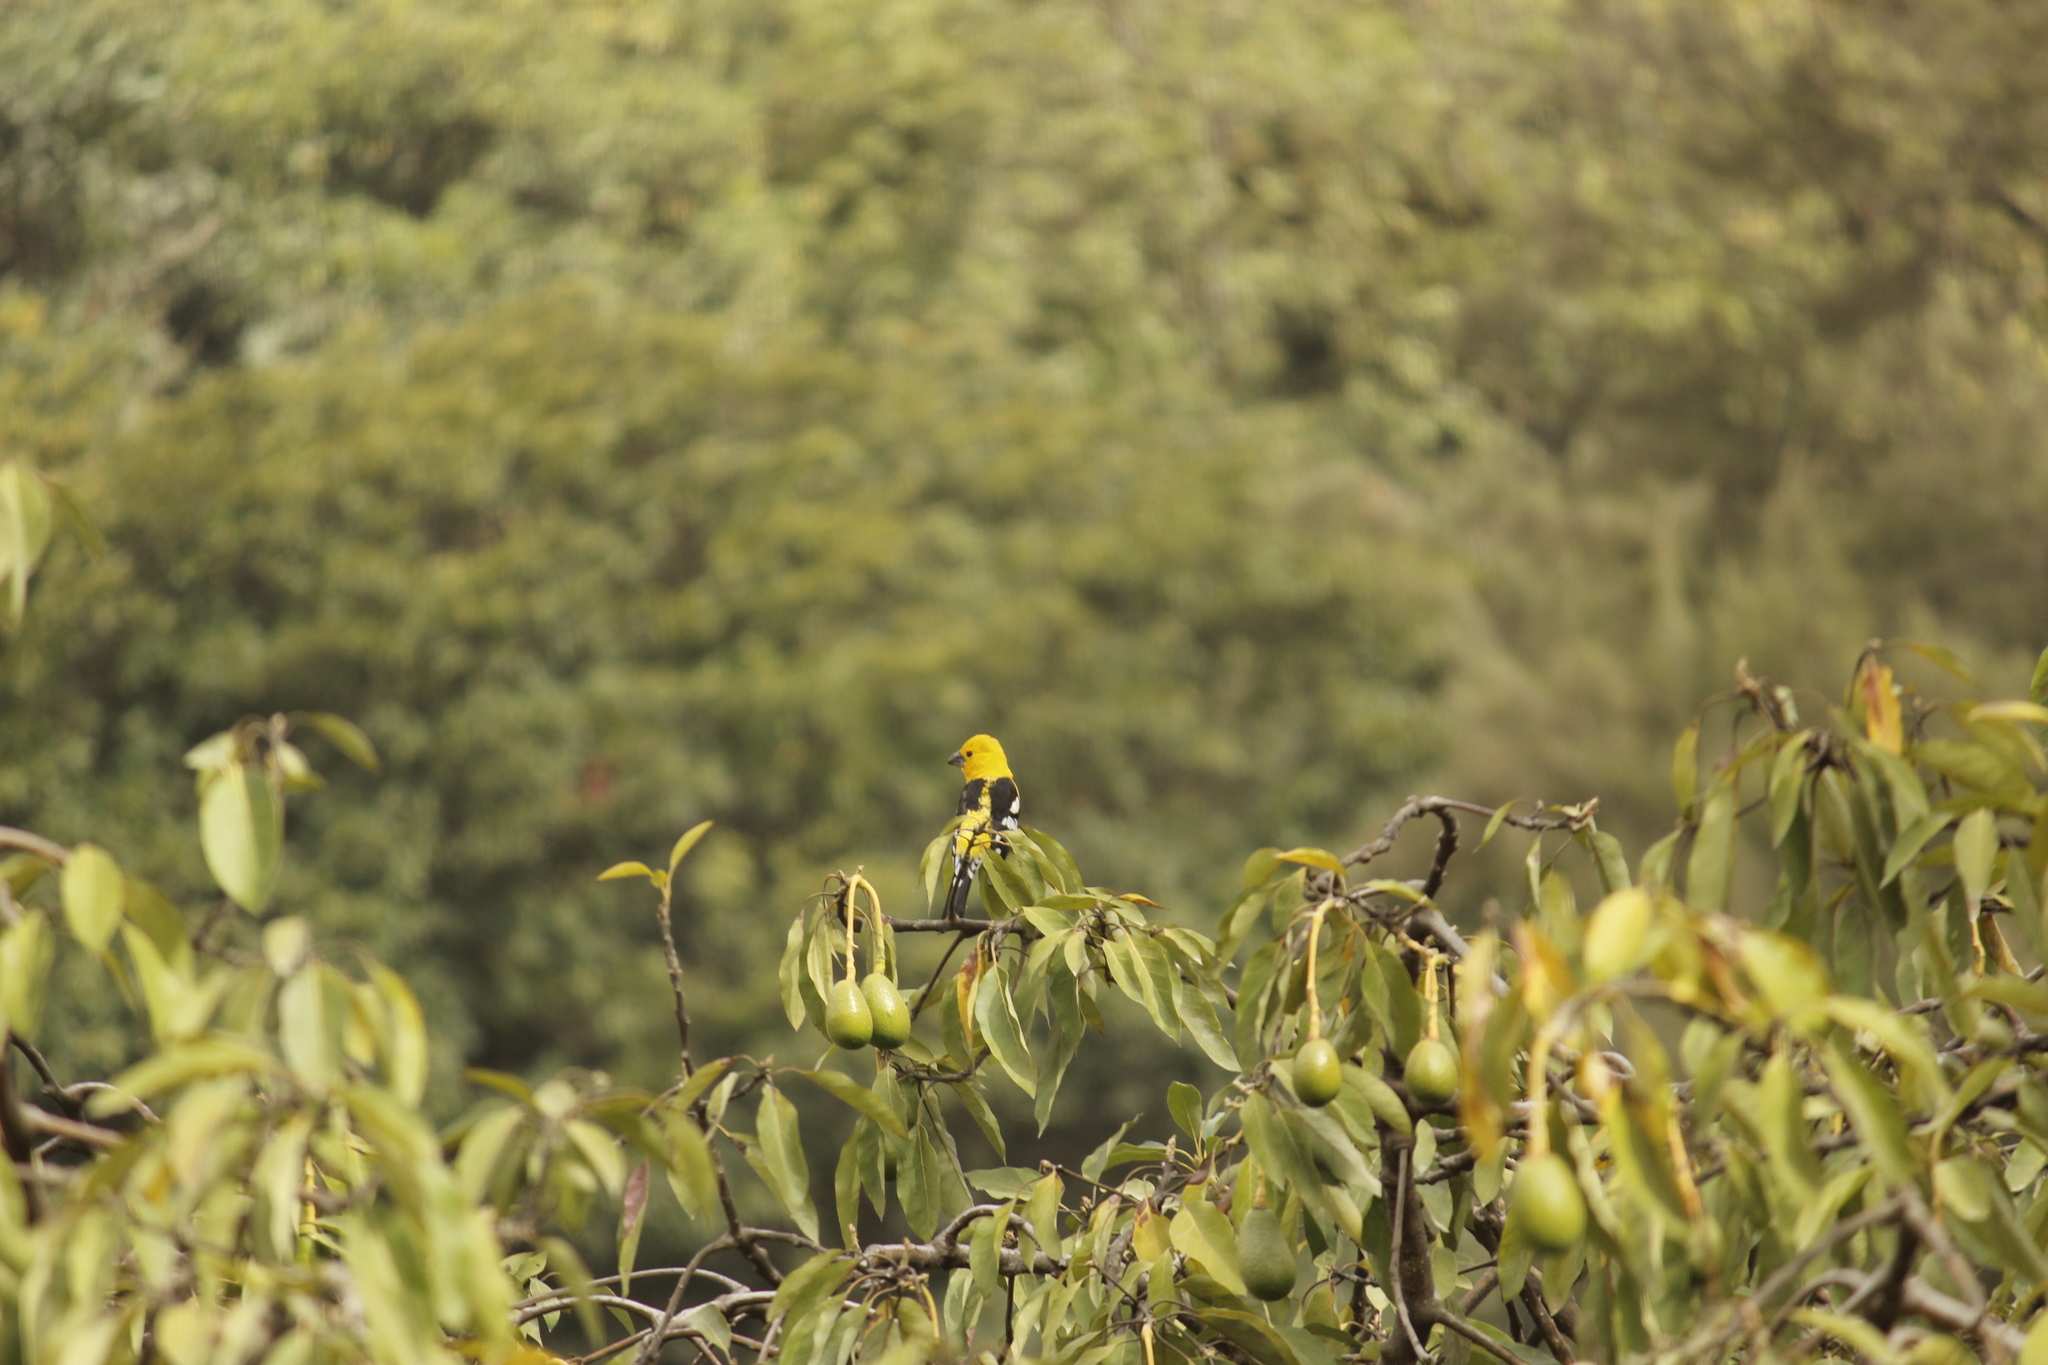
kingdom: Animalia
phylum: Chordata
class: Aves
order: Passeriformes
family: Cardinalidae
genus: Pheucticus
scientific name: Pheucticus chrysogaster
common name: Golden grosbeak
